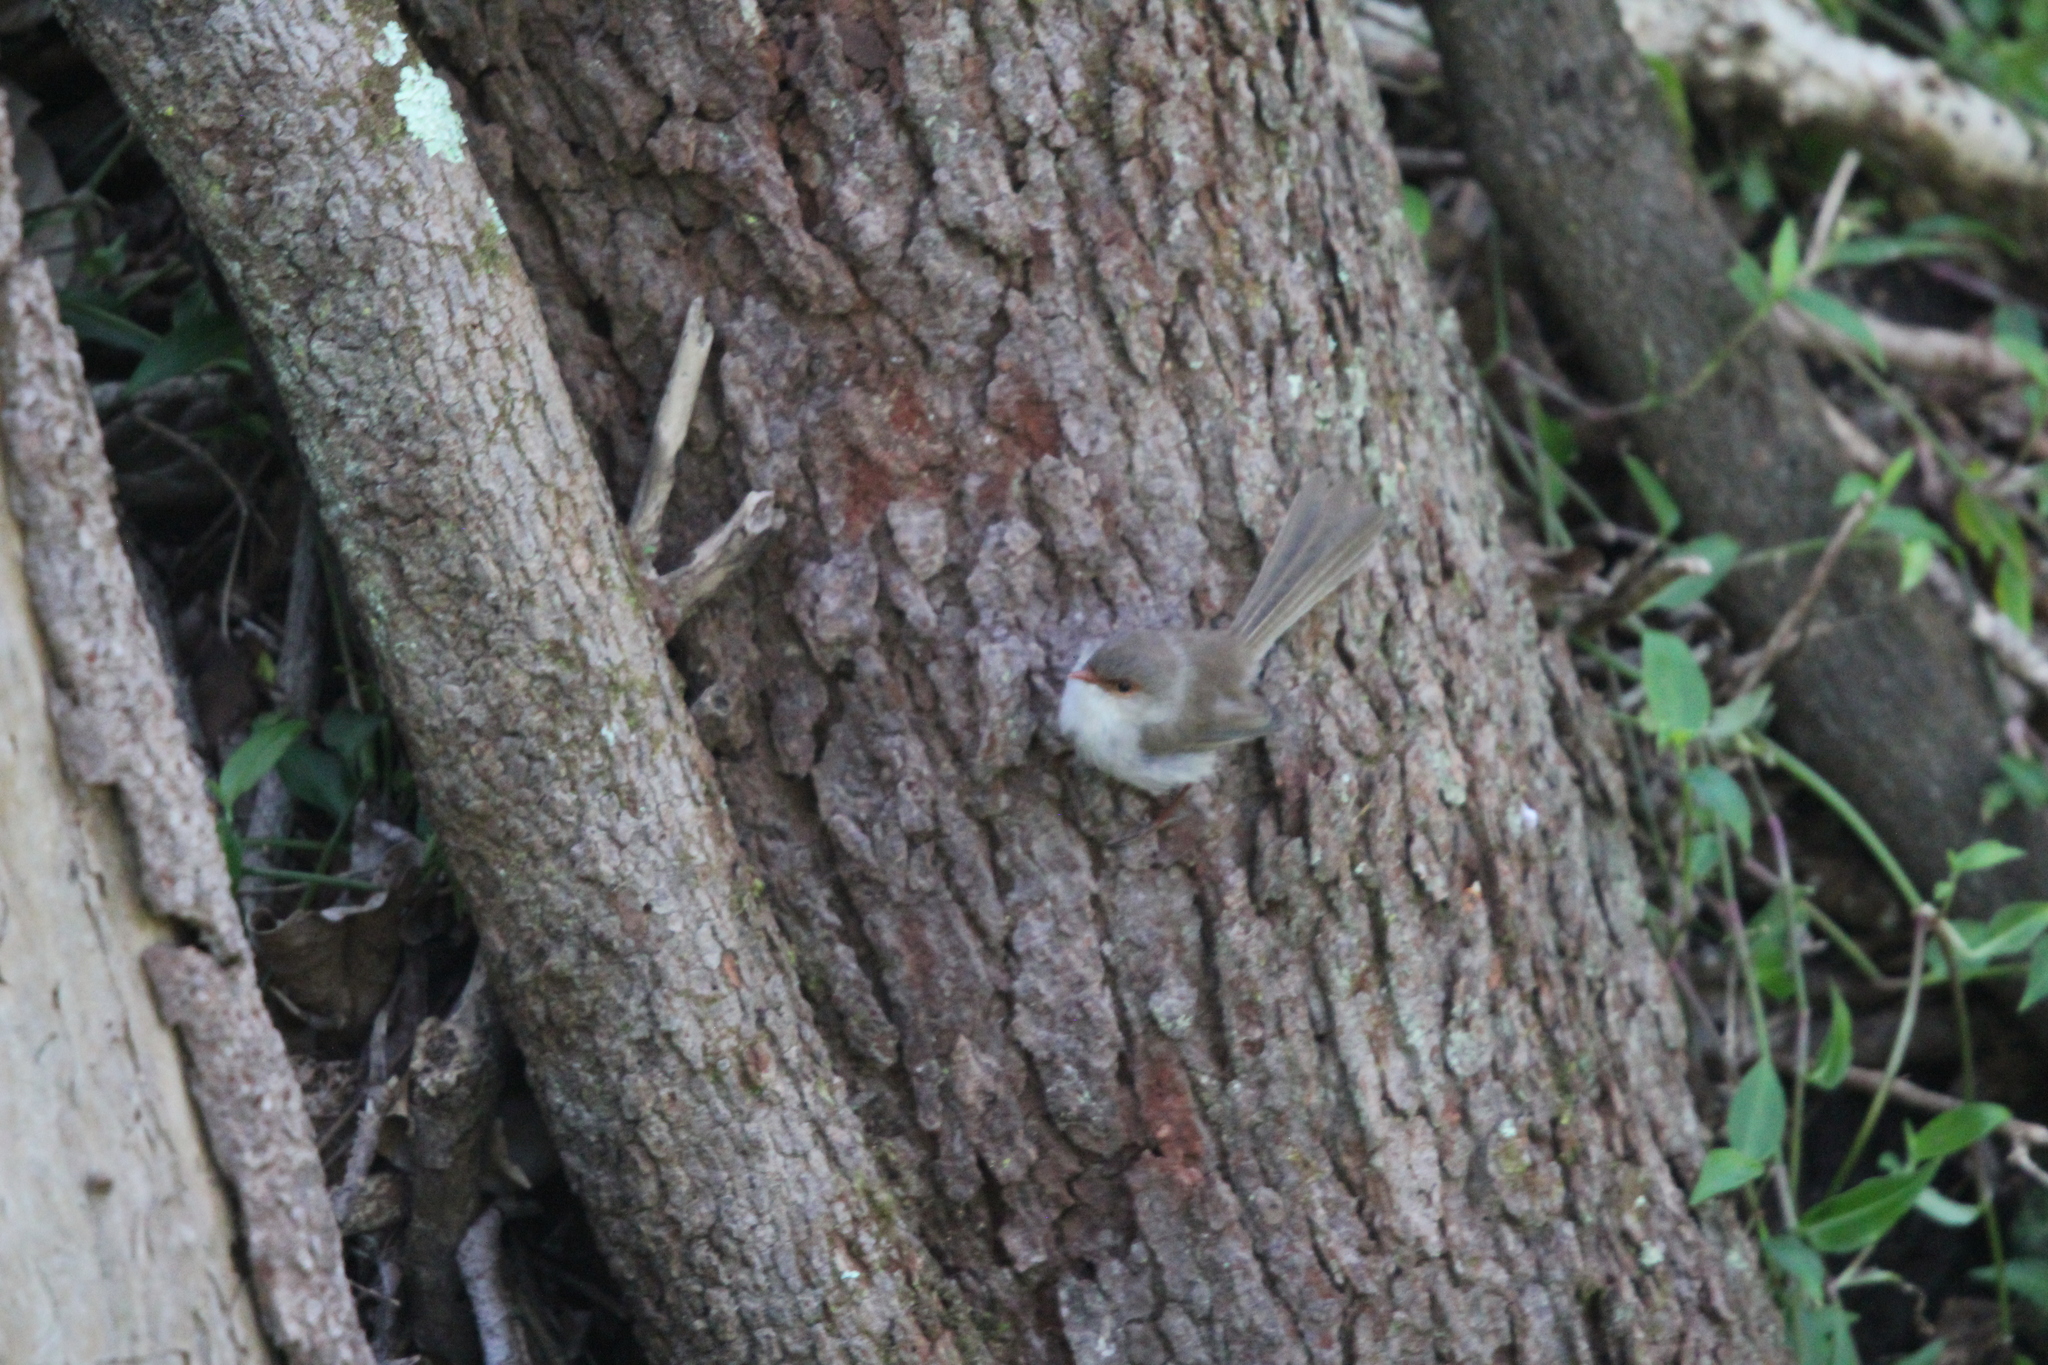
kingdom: Animalia
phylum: Chordata
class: Aves
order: Passeriformes
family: Maluridae
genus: Malurus
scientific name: Malurus cyaneus
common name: Superb fairywren
